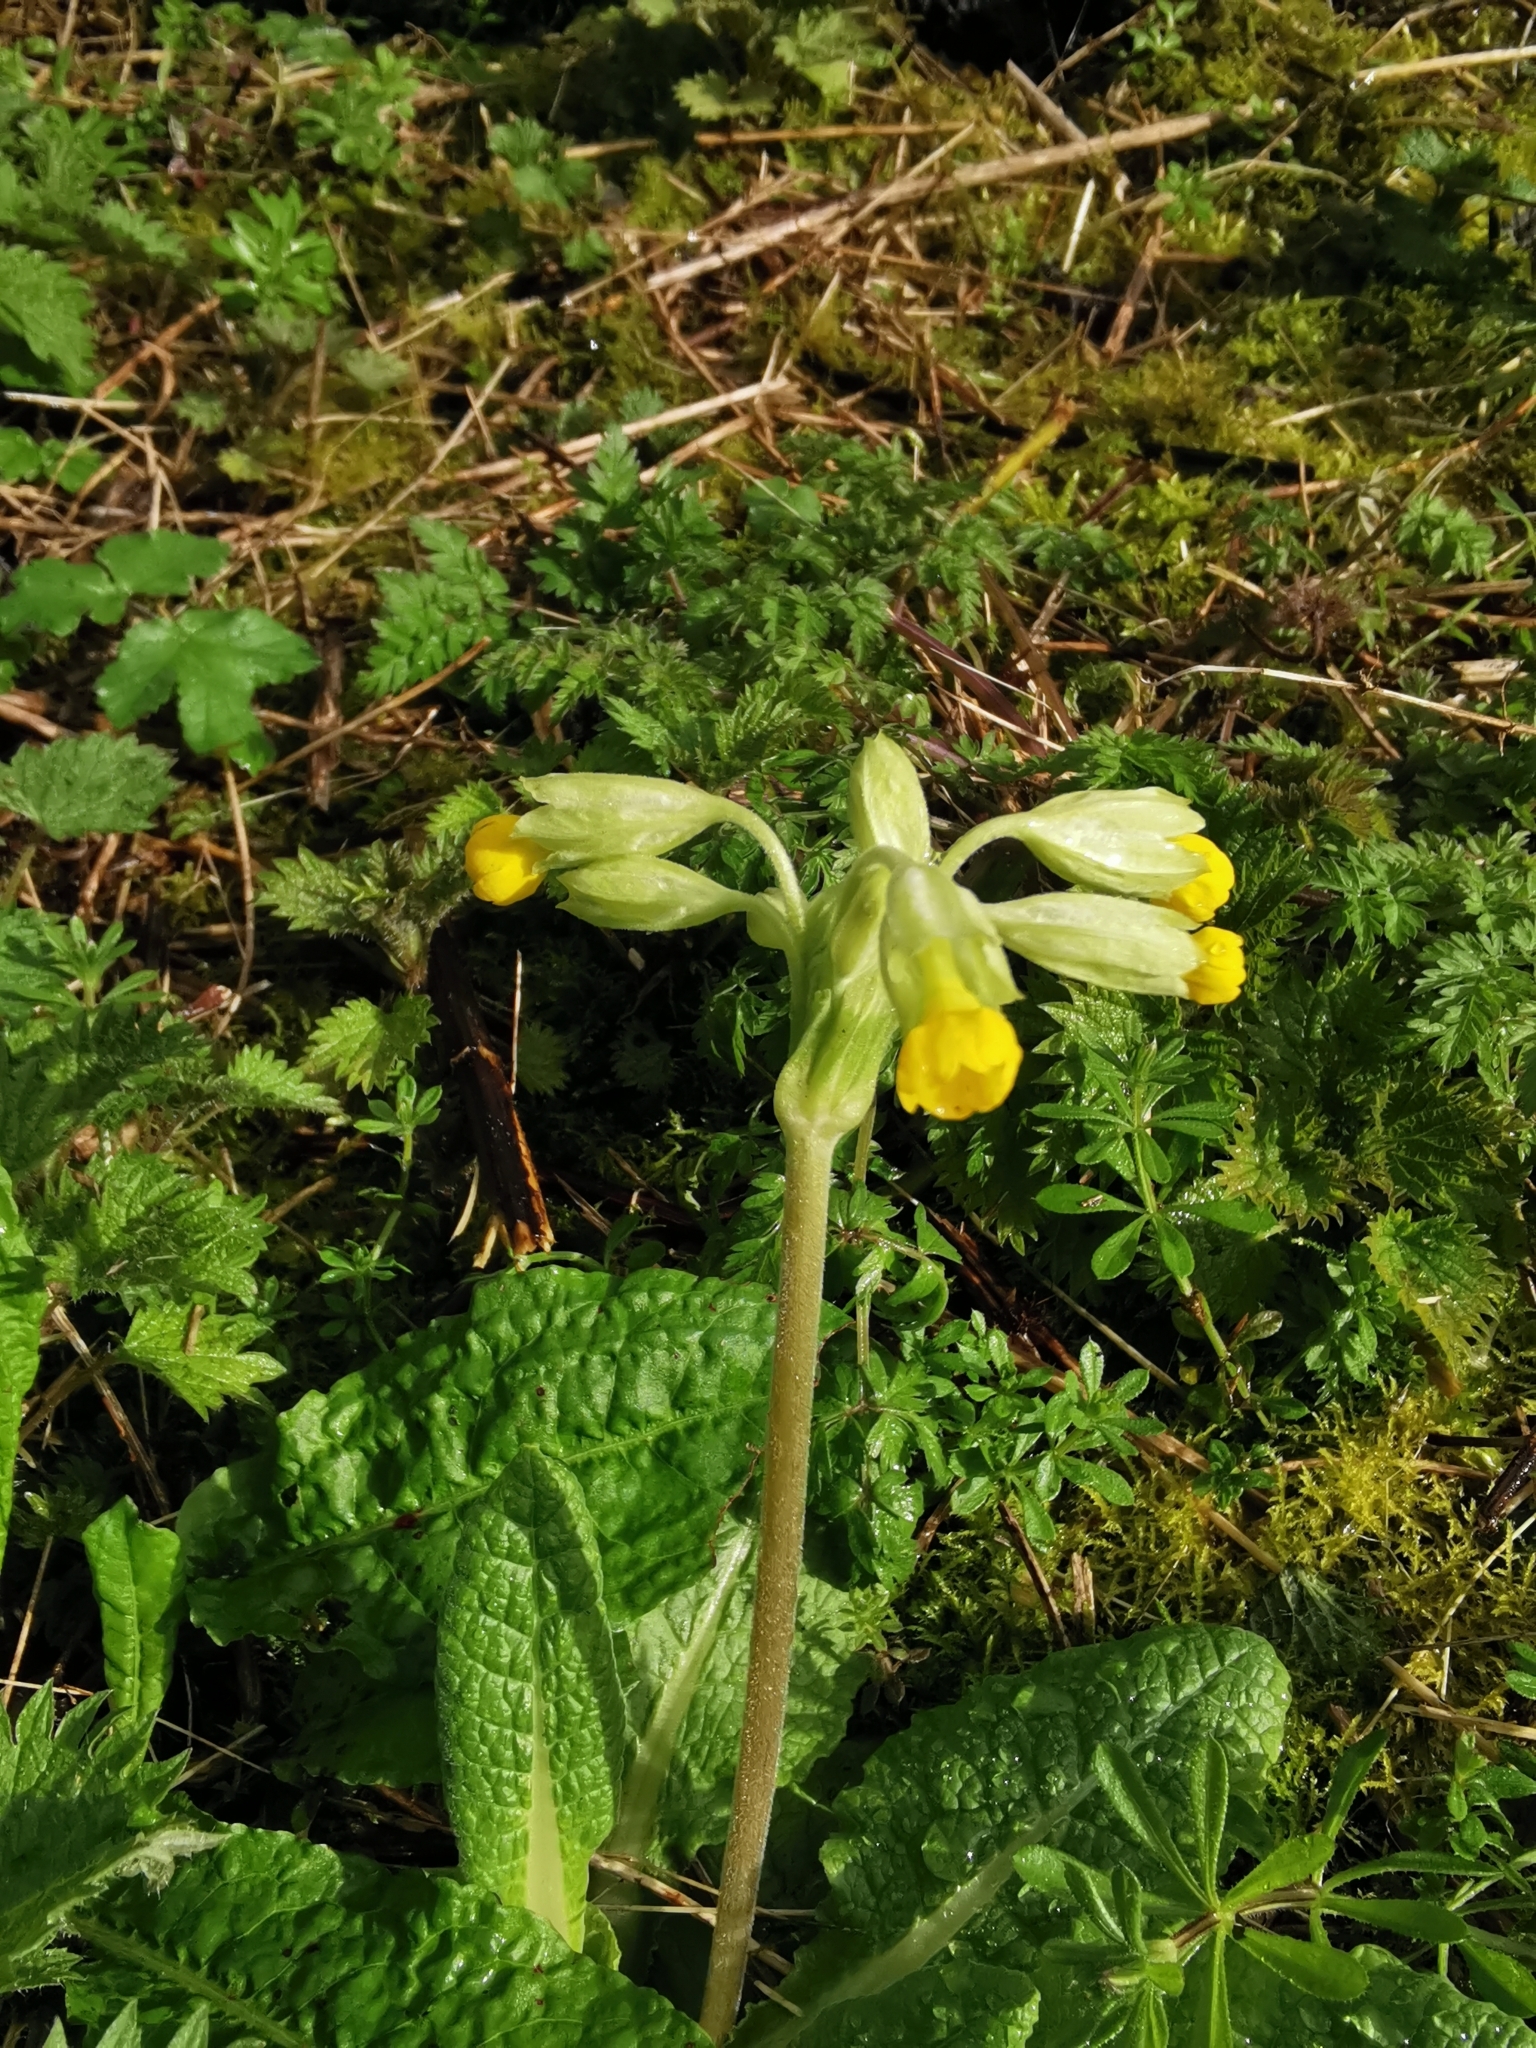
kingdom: Plantae
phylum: Tracheophyta
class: Magnoliopsida
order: Ericales
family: Primulaceae
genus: Primula
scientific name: Primula veris
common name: Cowslip
